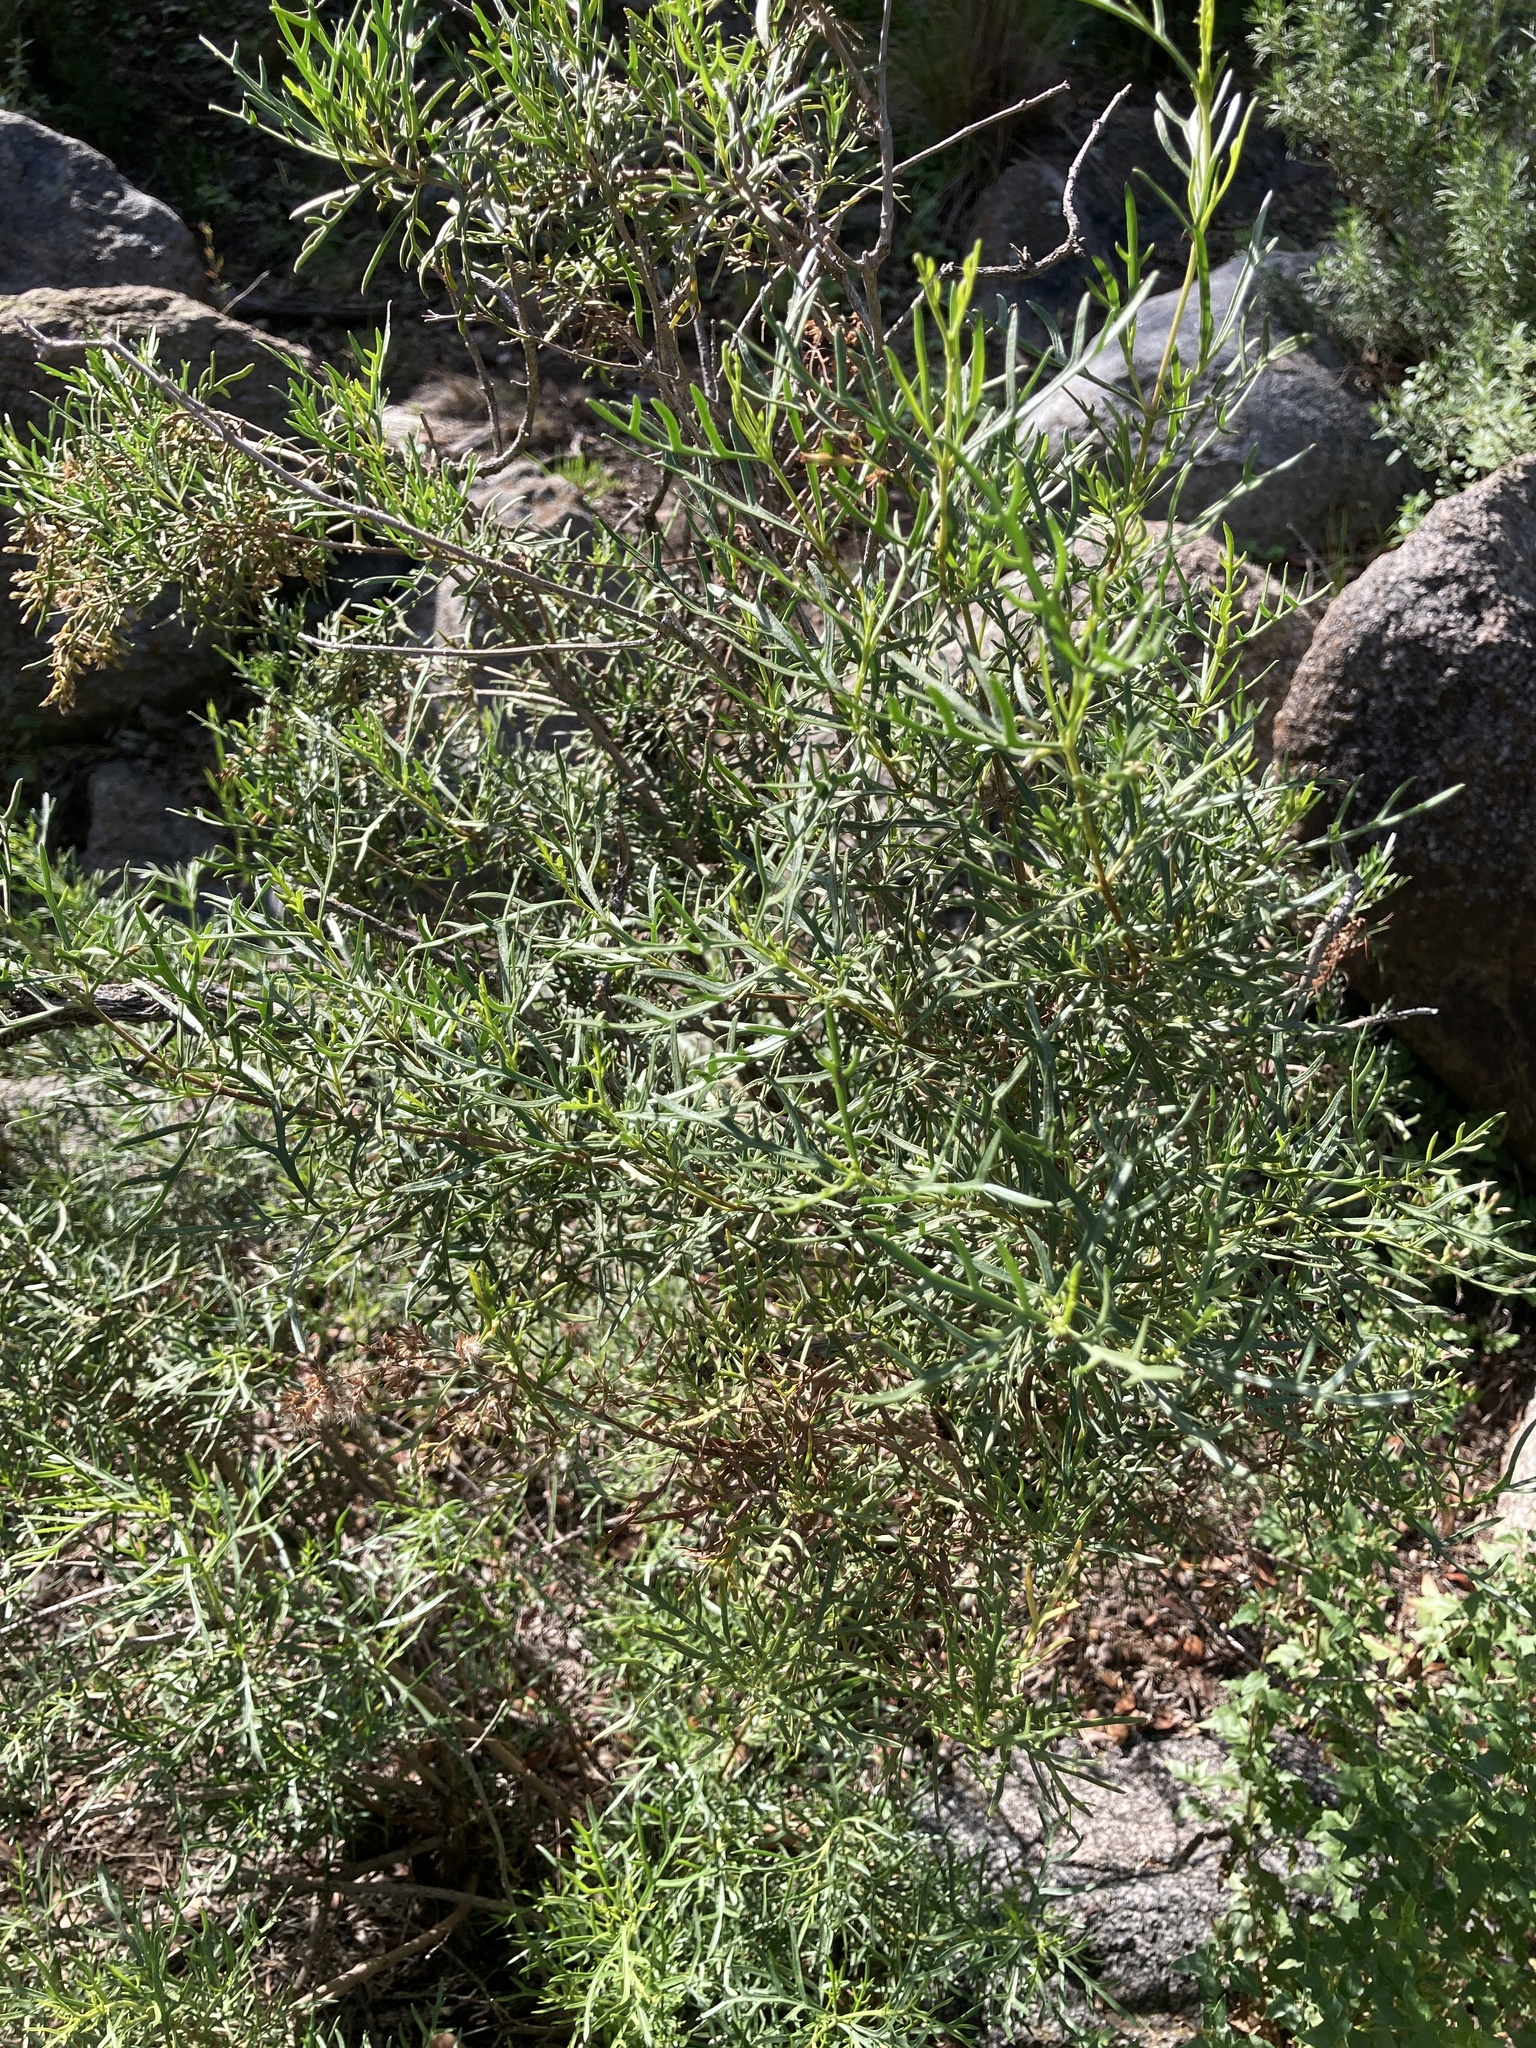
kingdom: Plantae
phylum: Tracheophyta
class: Magnoliopsida
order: Asterales
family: Asteraceae
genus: Acanthostyles
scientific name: Acanthostyles buniifolius
